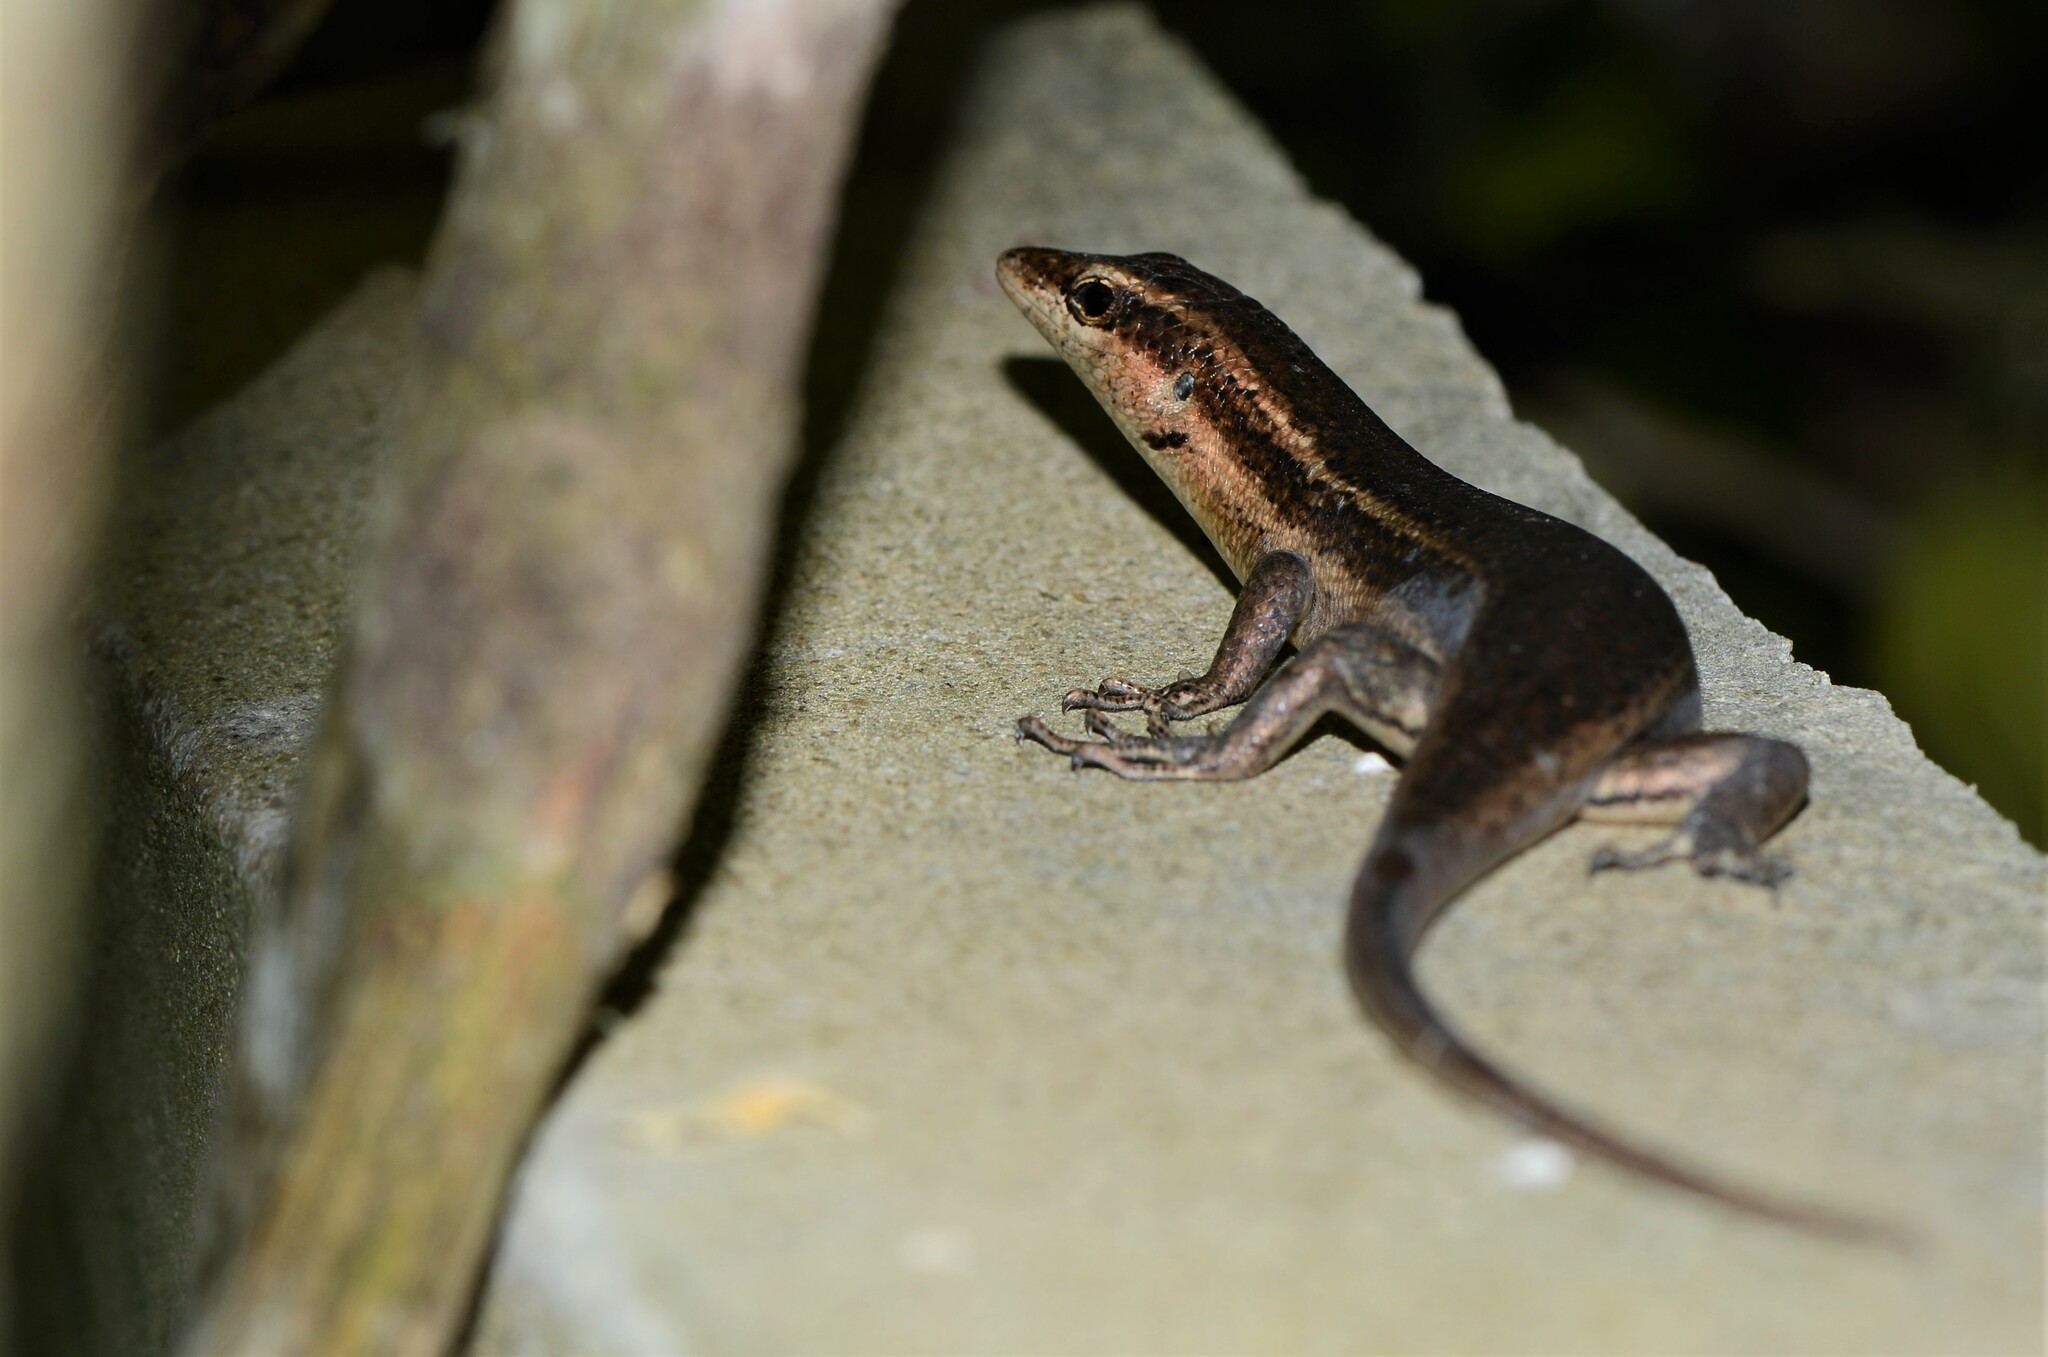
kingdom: Animalia
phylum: Chordata
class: Squamata
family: Scincidae
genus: Trachylepis
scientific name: Trachylepis sechellensis
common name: Seychelles skink
